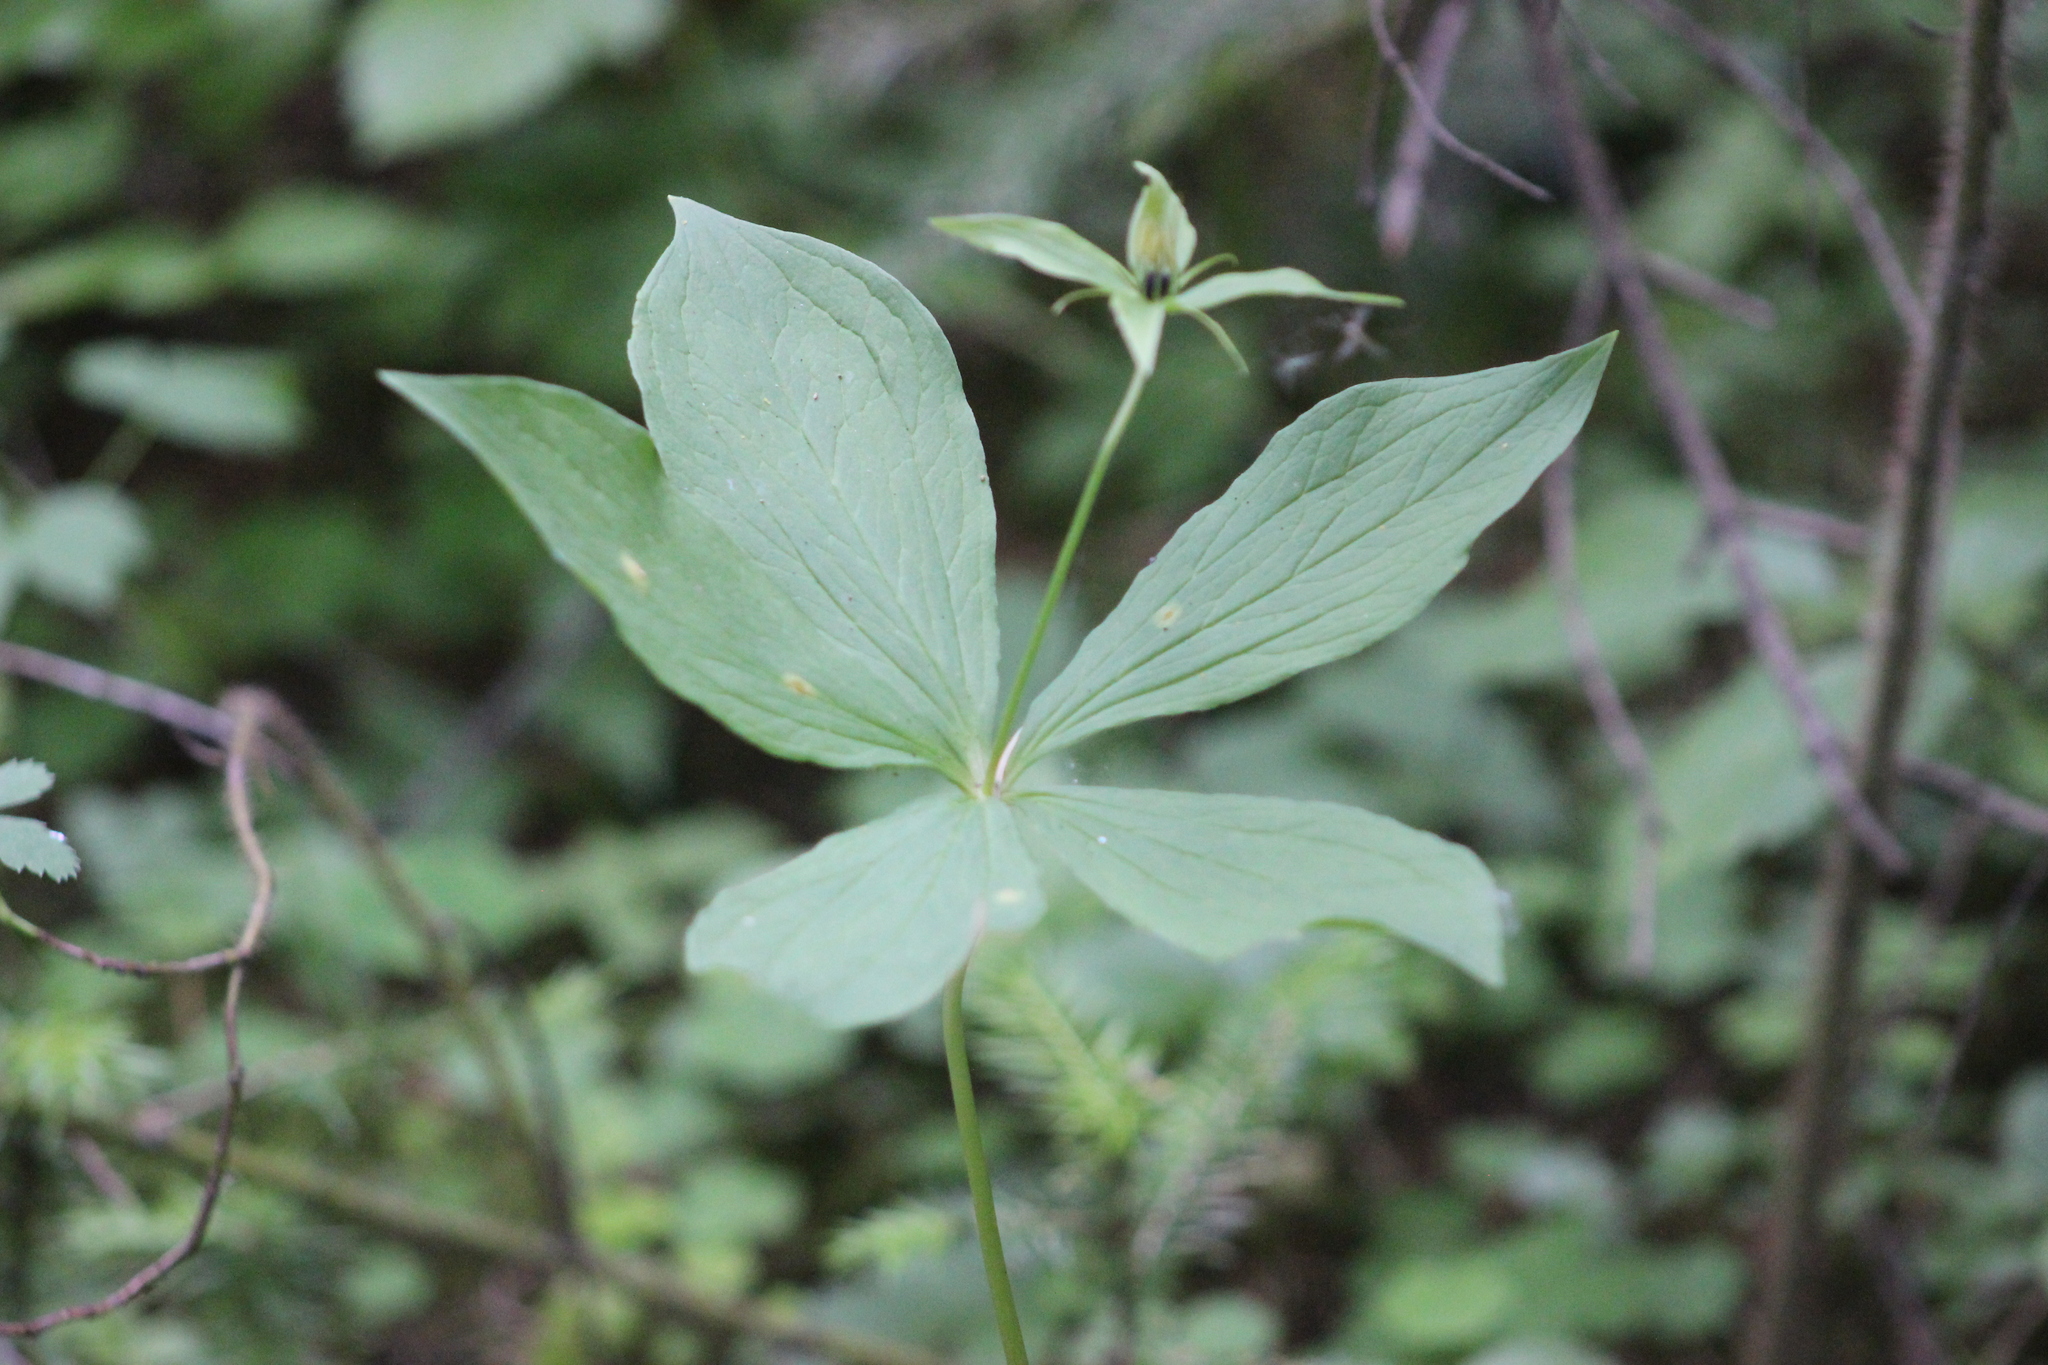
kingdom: Plantae
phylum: Tracheophyta
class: Liliopsida
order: Liliales
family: Melanthiaceae
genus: Paris
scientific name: Paris quadrifolia
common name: Herb-paris
